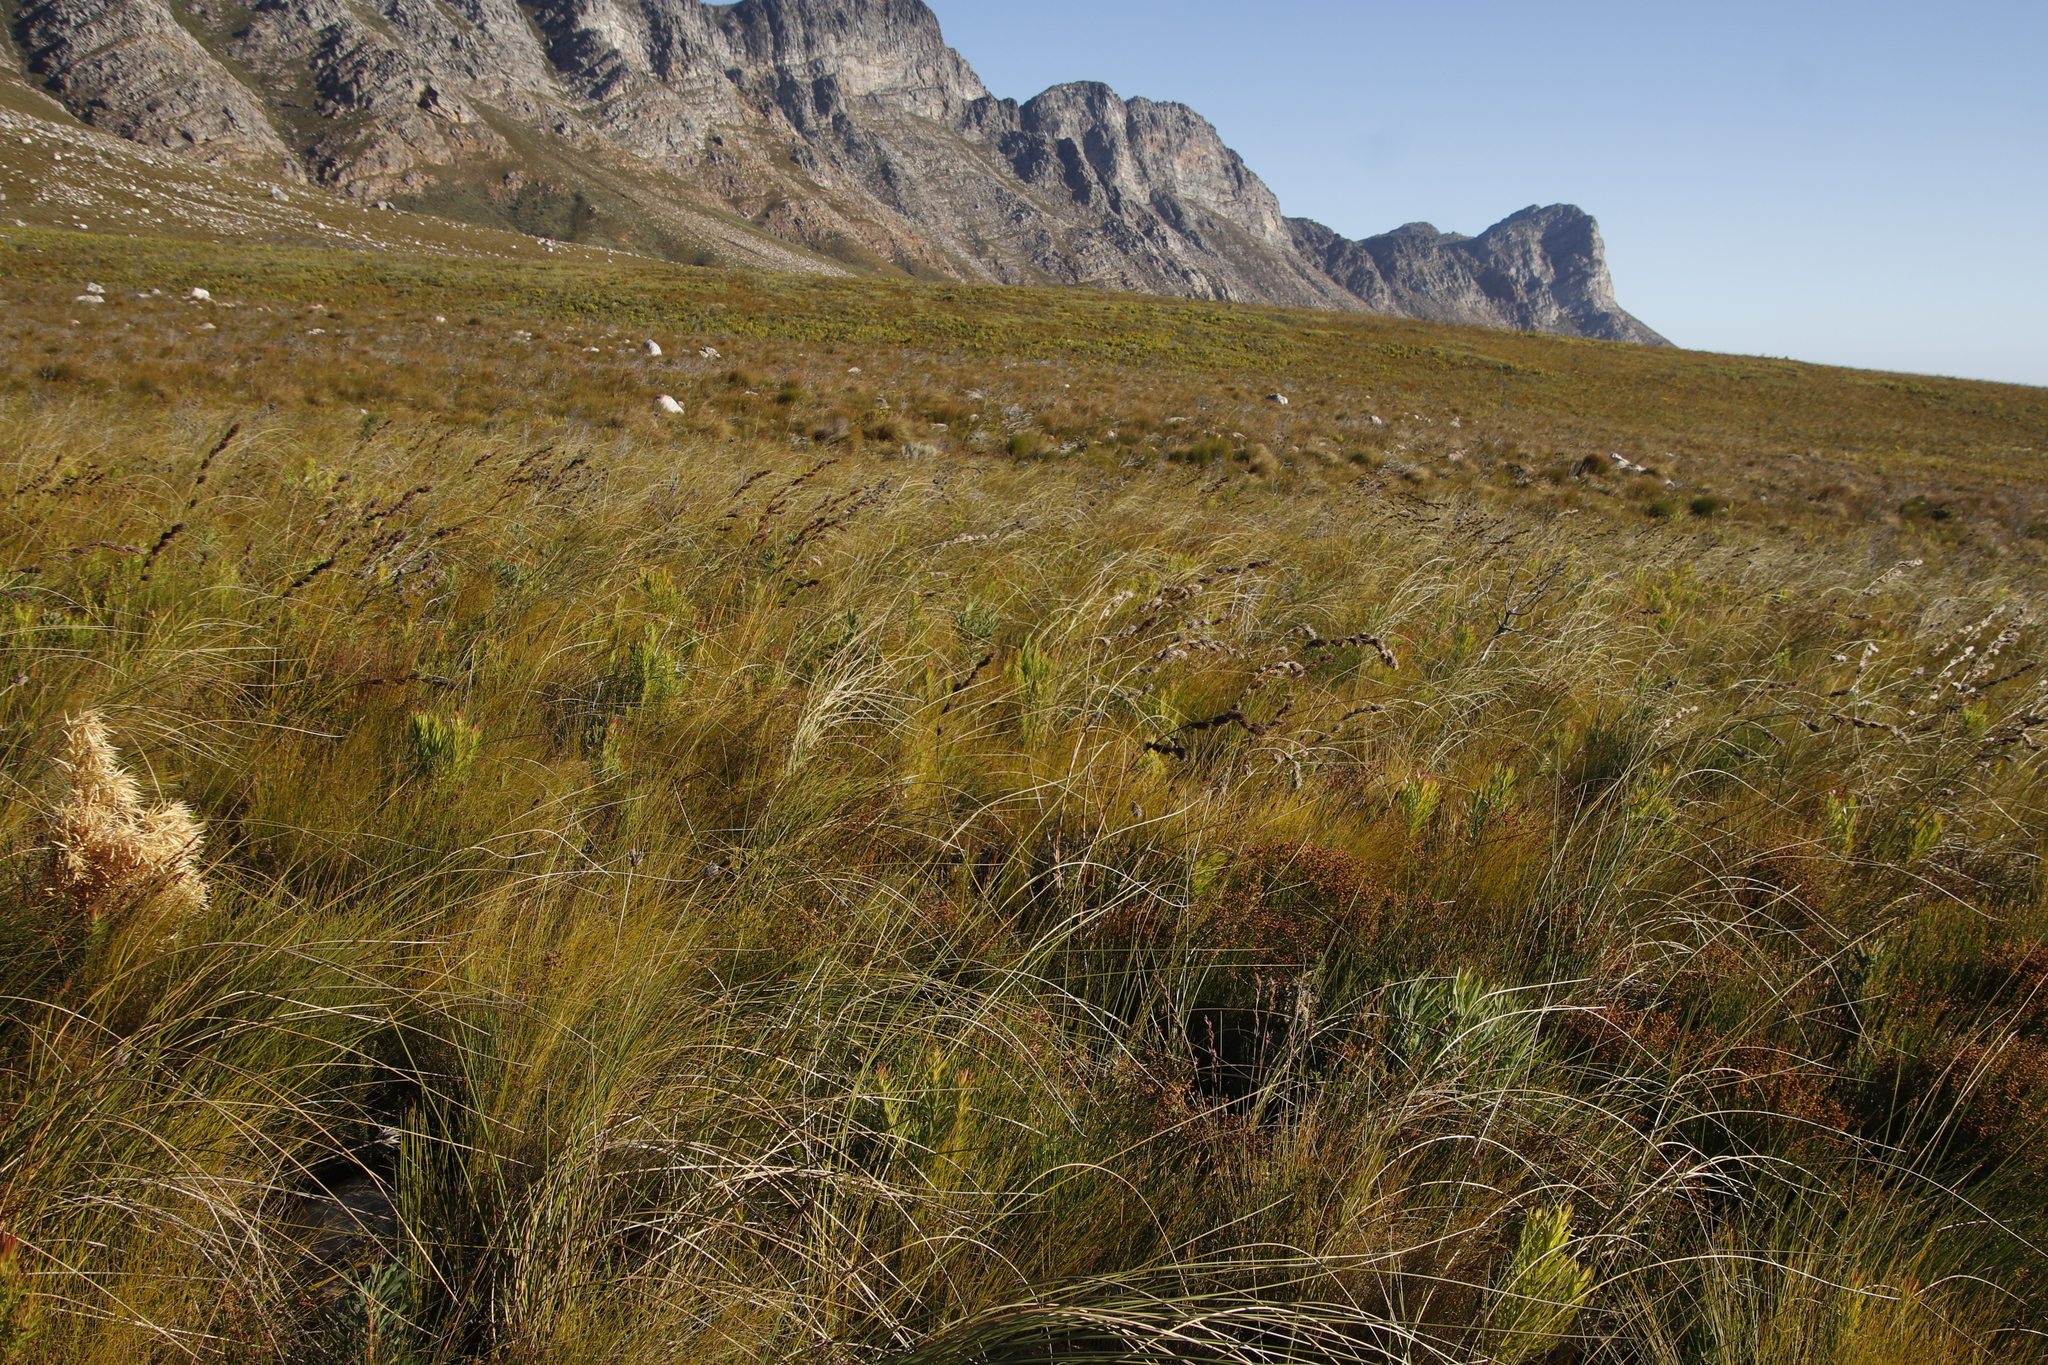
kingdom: Plantae
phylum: Tracheophyta
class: Liliopsida
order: Poales
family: Cyperaceae
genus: Tetraria
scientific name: Tetraria bromoides
